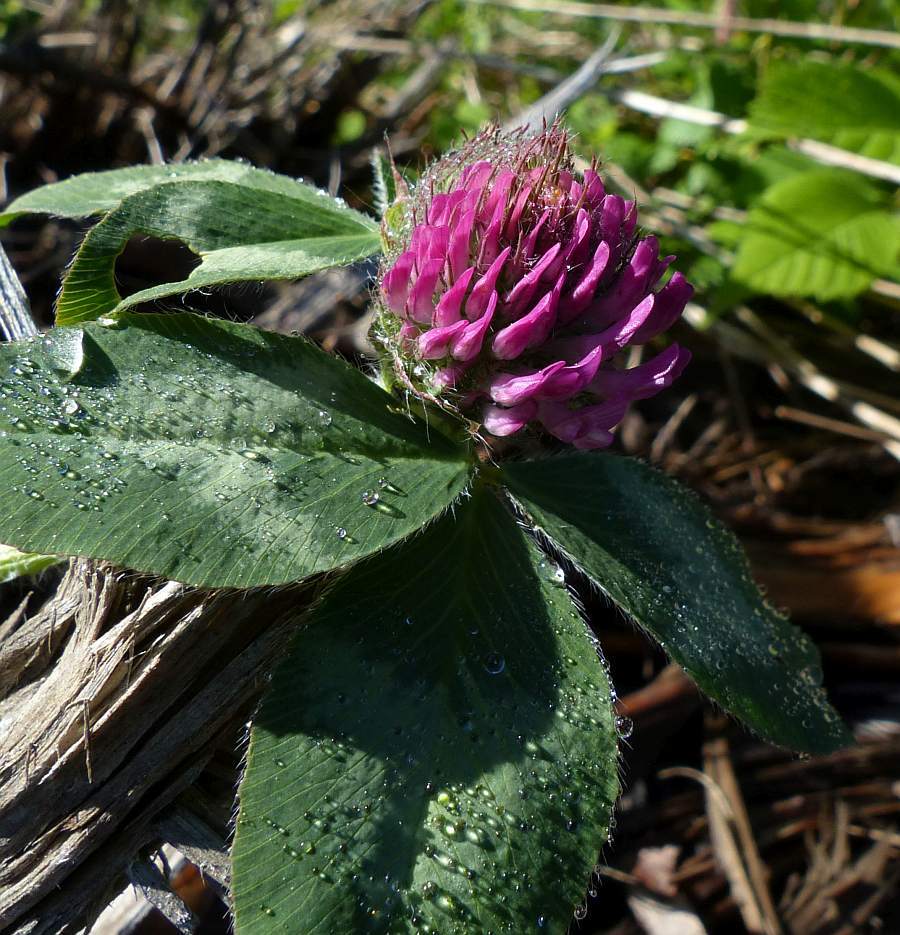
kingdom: Plantae
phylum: Tracheophyta
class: Magnoliopsida
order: Fabales
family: Fabaceae
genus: Trifolium
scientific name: Trifolium pratense
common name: Red clover
